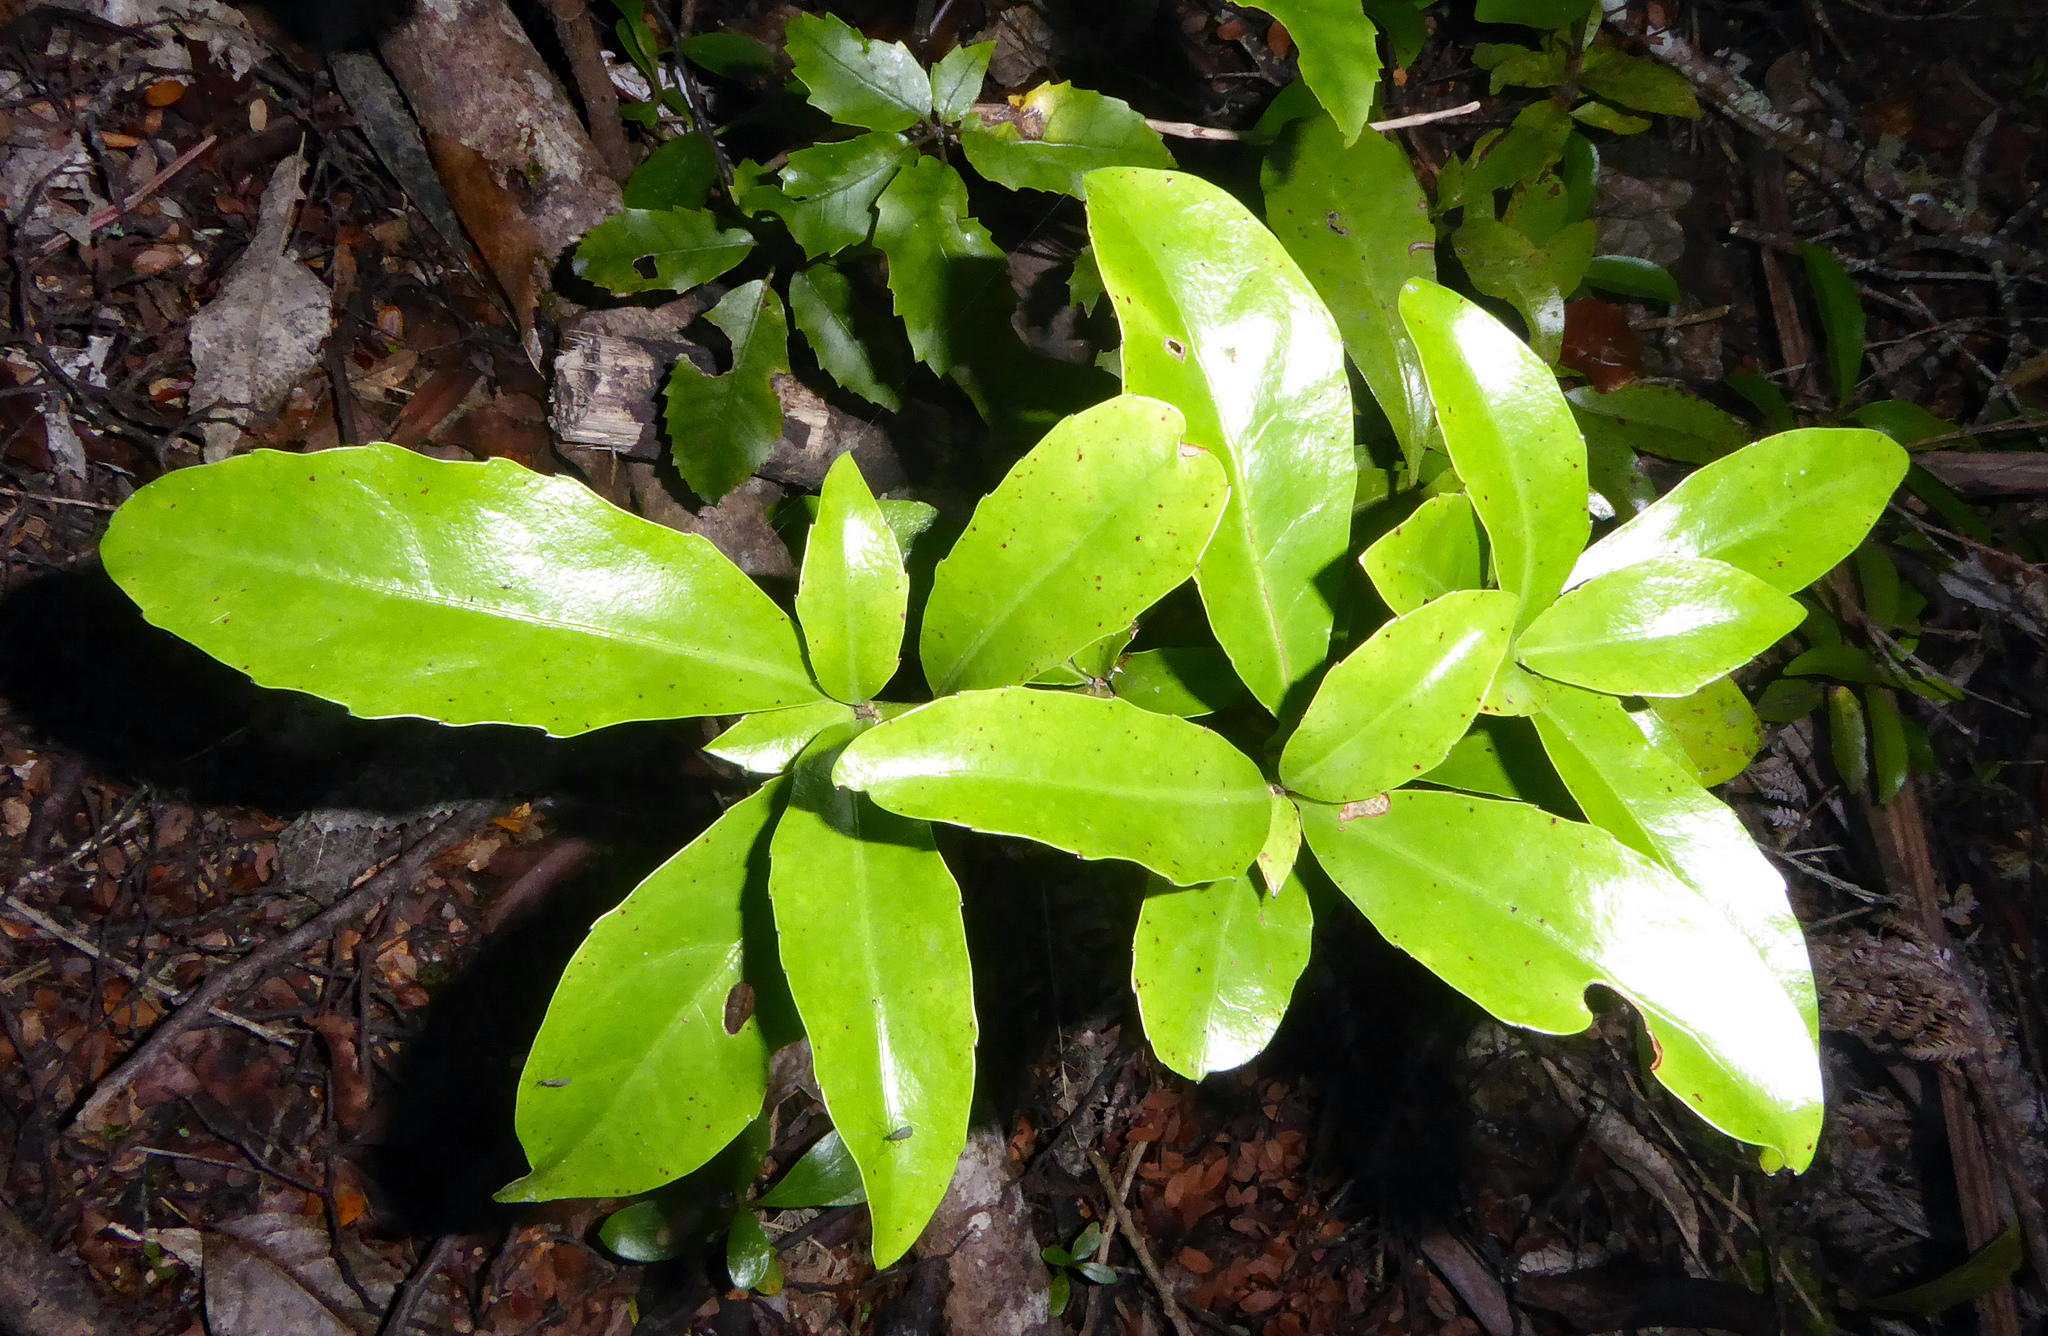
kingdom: Plantae
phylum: Tracheophyta
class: Magnoliopsida
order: Asterales
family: Alseuosmiaceae
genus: Alseuosmia
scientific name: Alseuosmia turneri
